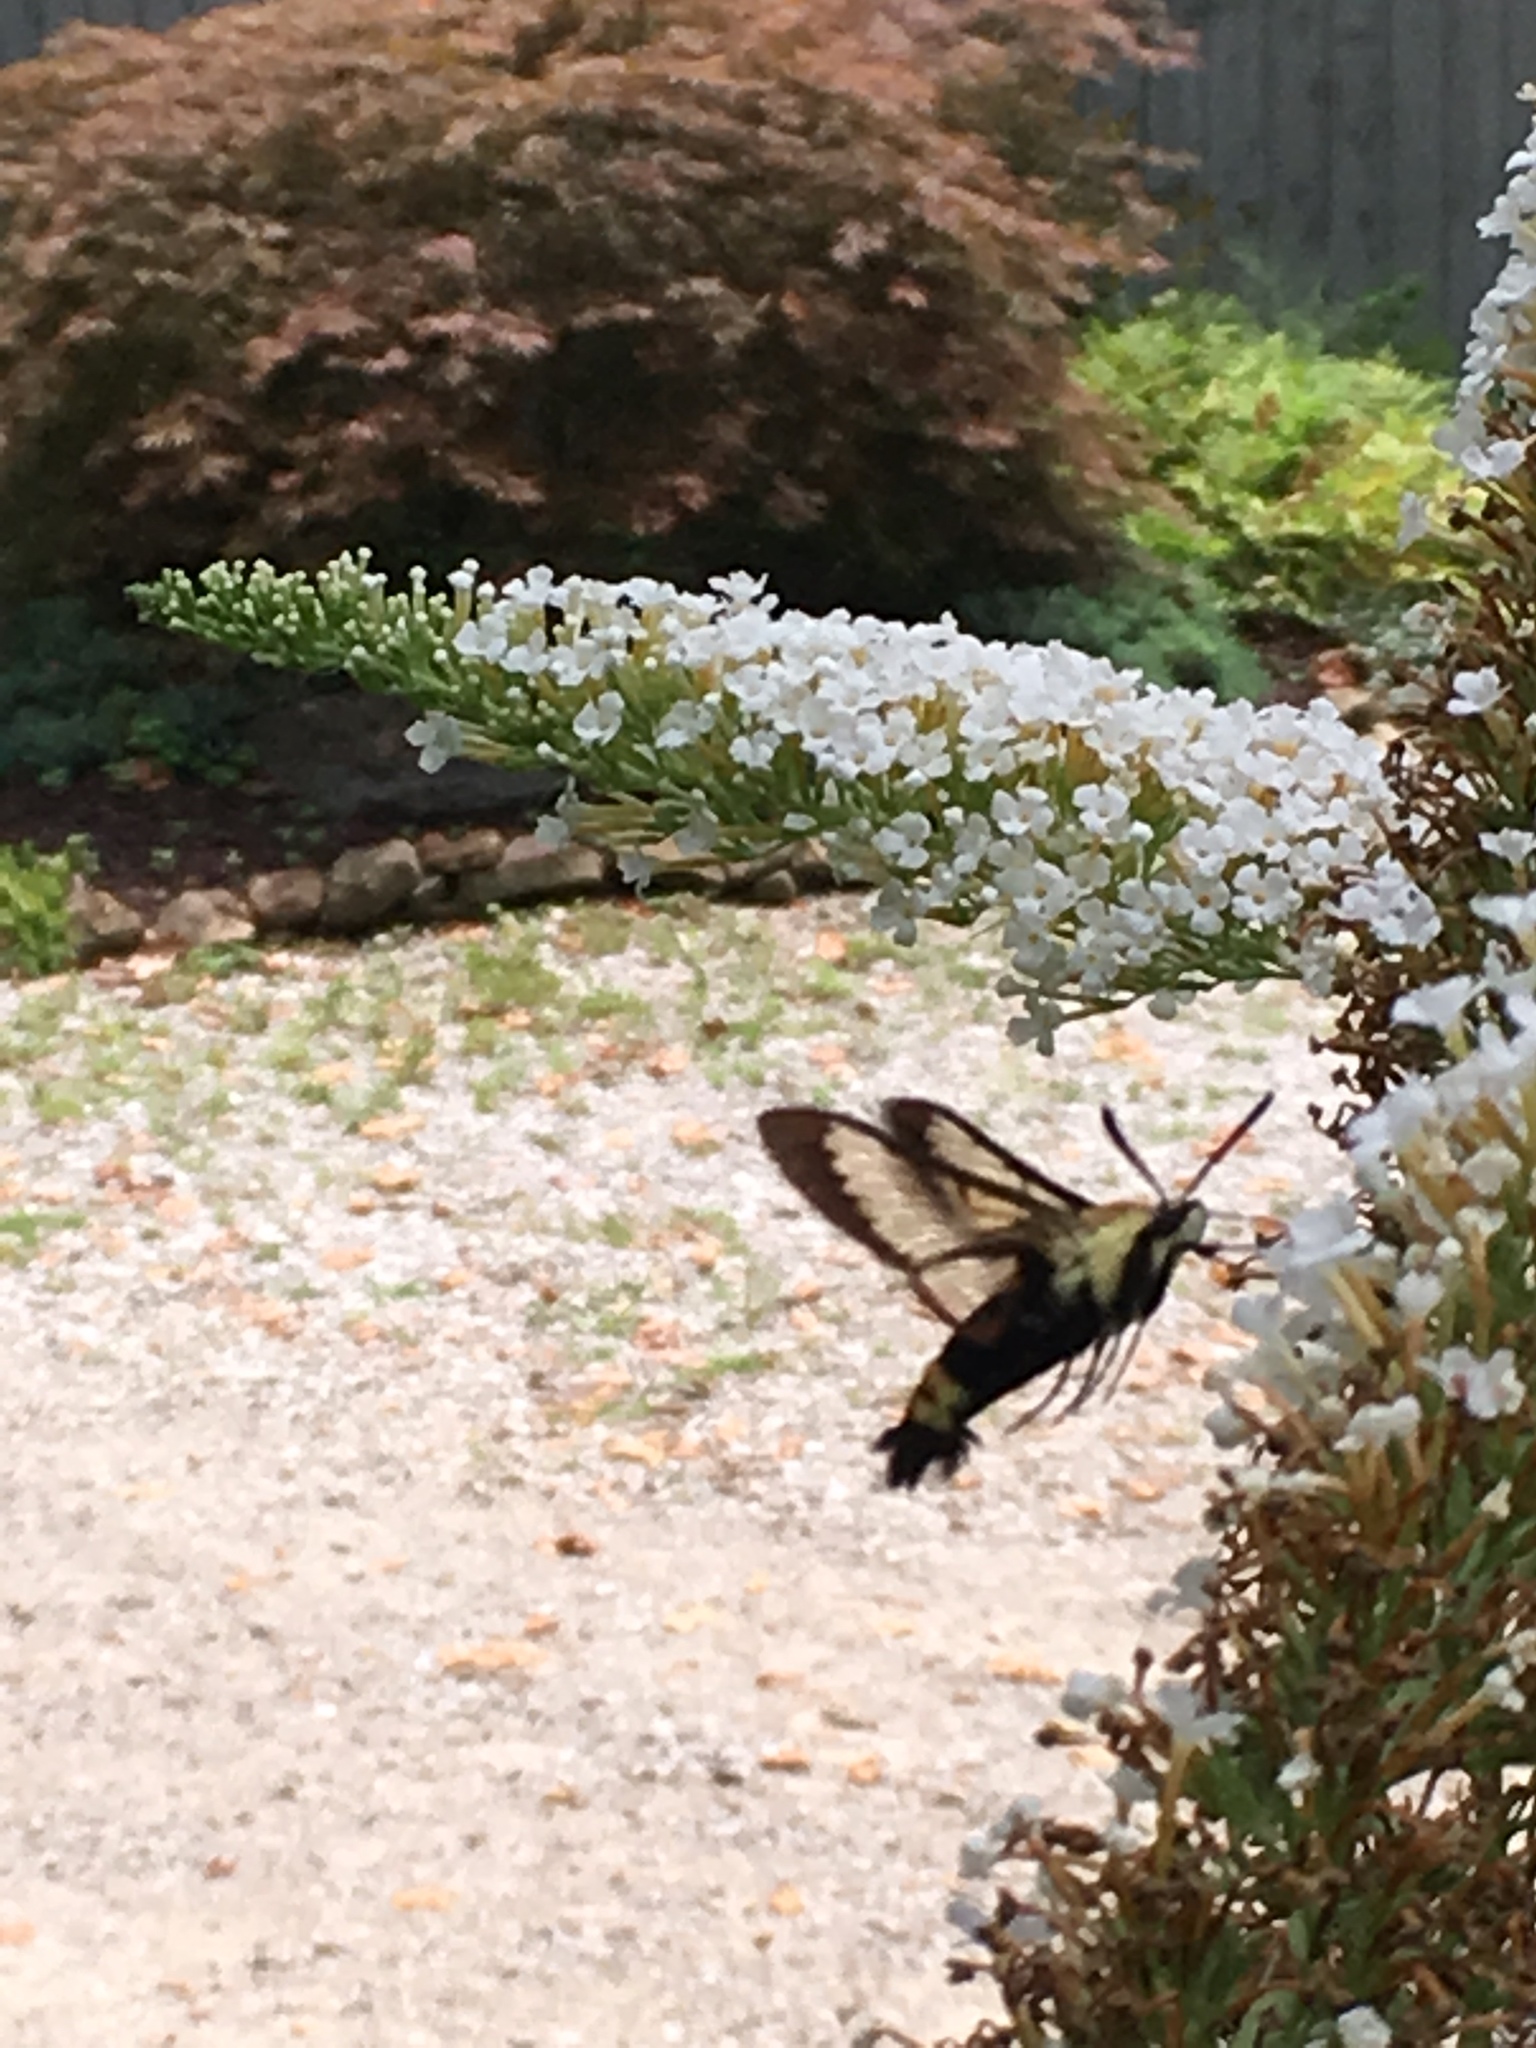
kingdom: Animalia
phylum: Arthropoda
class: Insecta
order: Lepidoptera
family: Sphingidae
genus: Hemaris
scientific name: Hemaris diffinis
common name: Bumblebee moth
